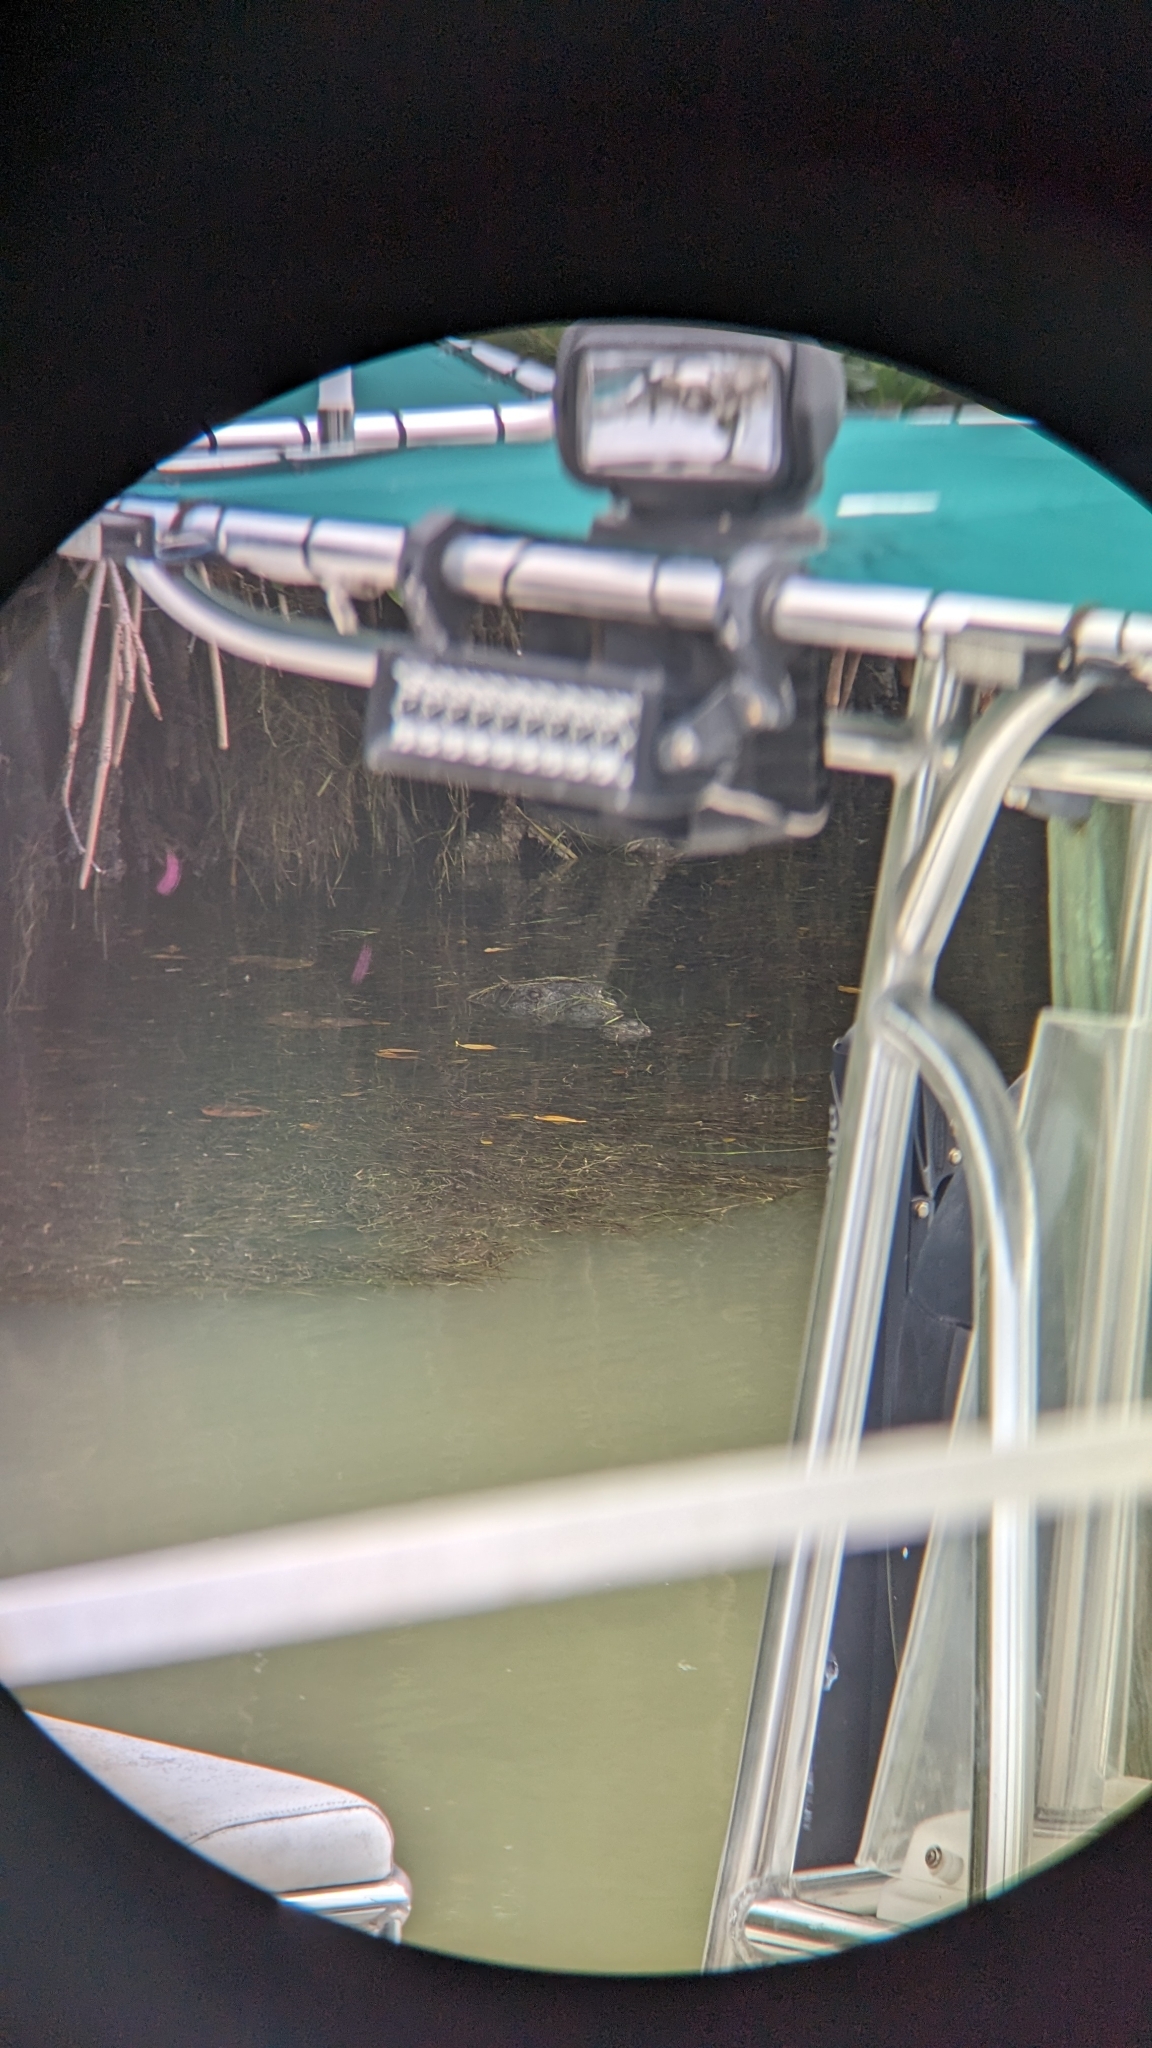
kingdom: Animalia
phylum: Chordata
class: Crocodylia
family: Crocodylidae
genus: Crocodylus
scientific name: Crocodylus acutus
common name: American crocodile
